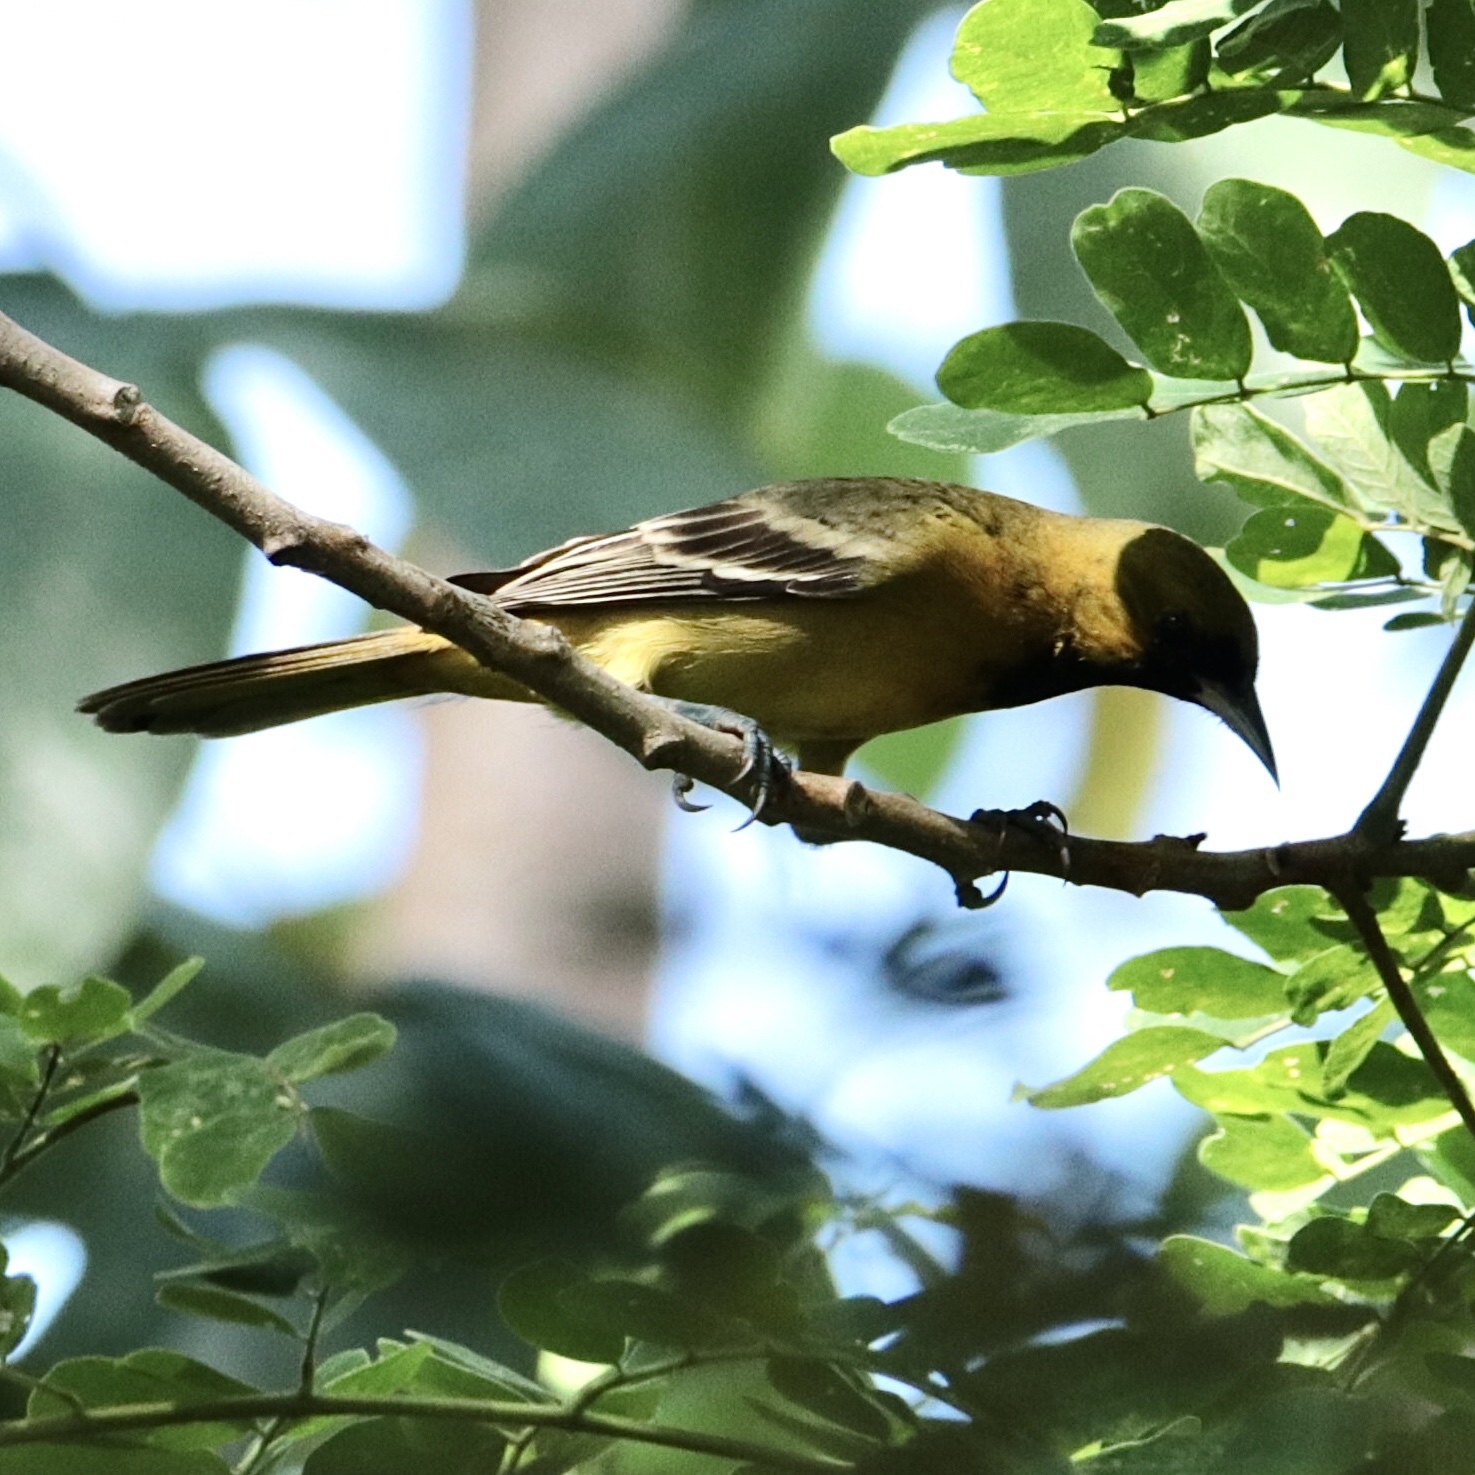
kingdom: Animalia
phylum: Chordata
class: Aves
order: Passeriformes
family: Icteridae
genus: Icterus
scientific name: Icterus spurius
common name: Orchard oriole
